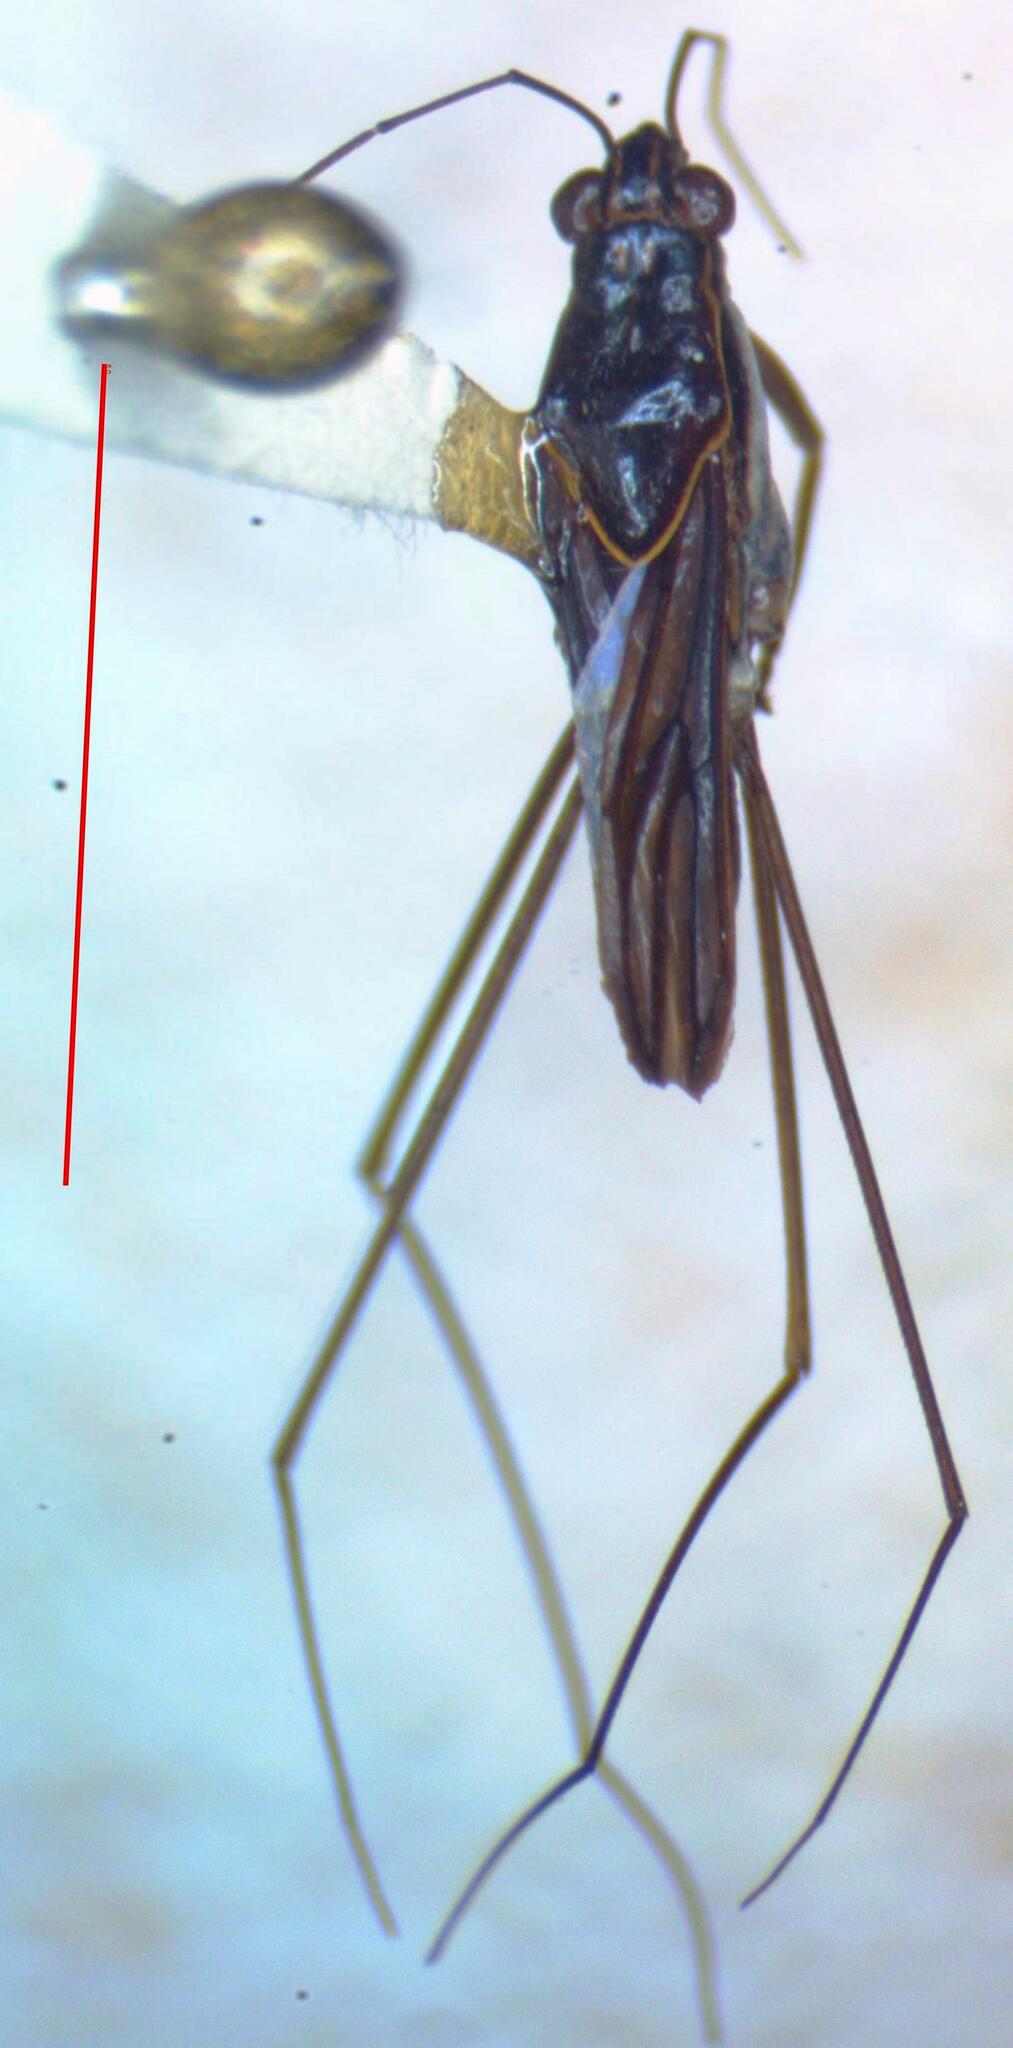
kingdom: Animalia
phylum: Arthropoda
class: Insecta
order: Hemiptera
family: Gerridae
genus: Limnogonus
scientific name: Limnogonus
